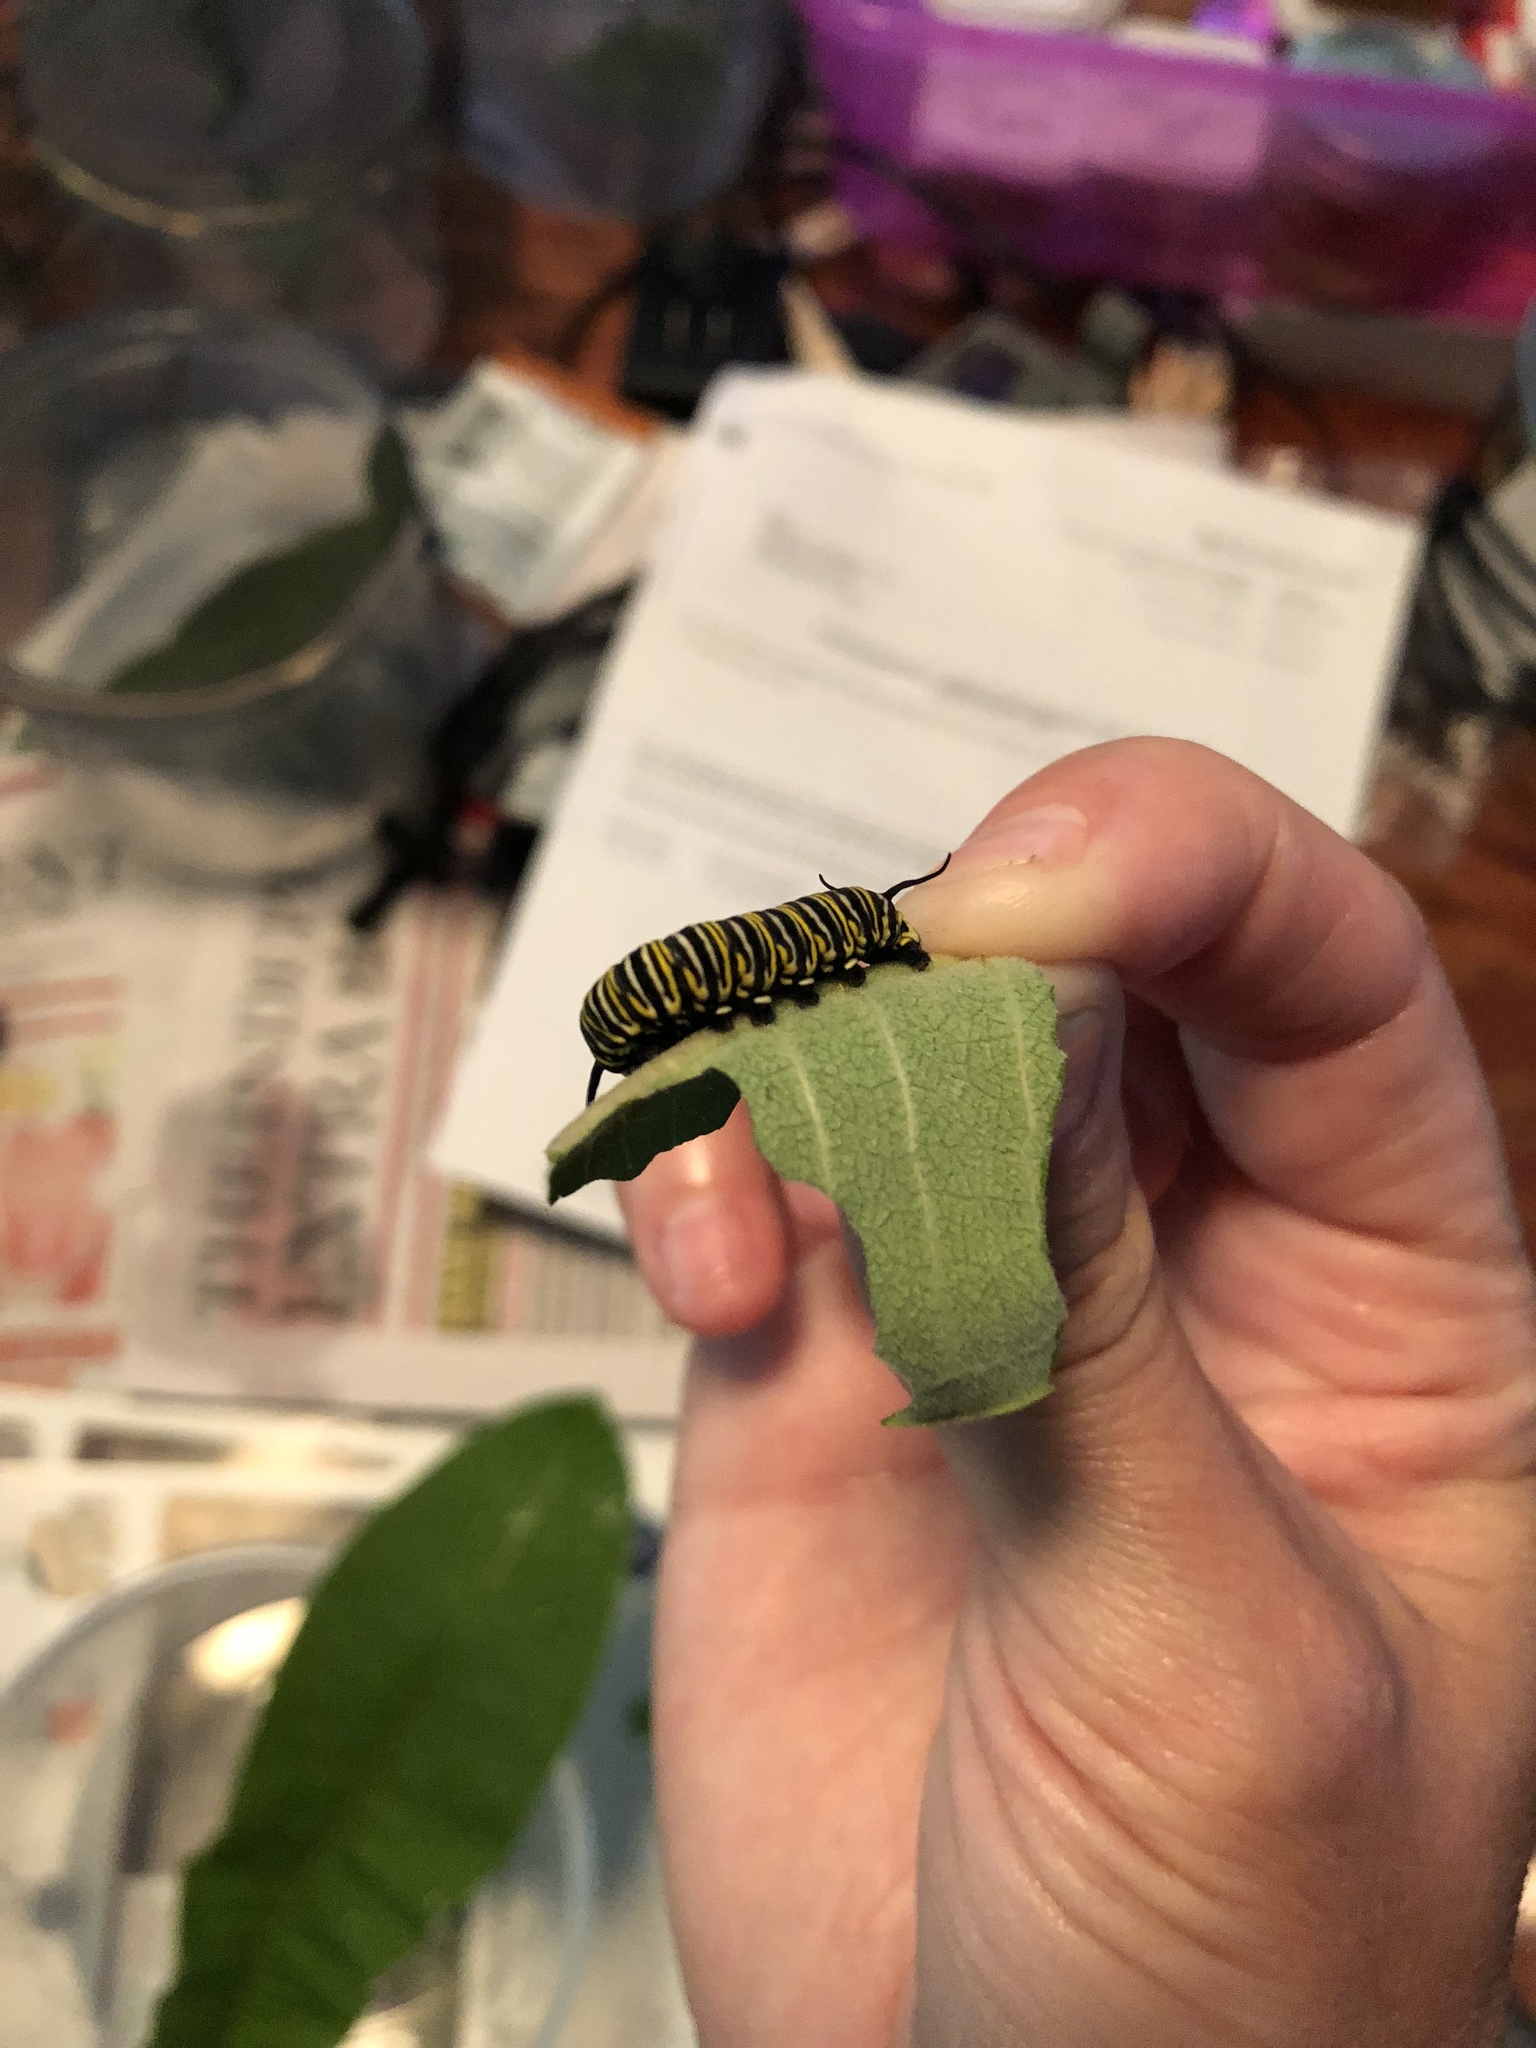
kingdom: Animalia
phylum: Arthropoda
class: Insecta
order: Lepidoptera
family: Nymphalidae
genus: Danaus
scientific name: Danaus plexippus
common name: Monarch
